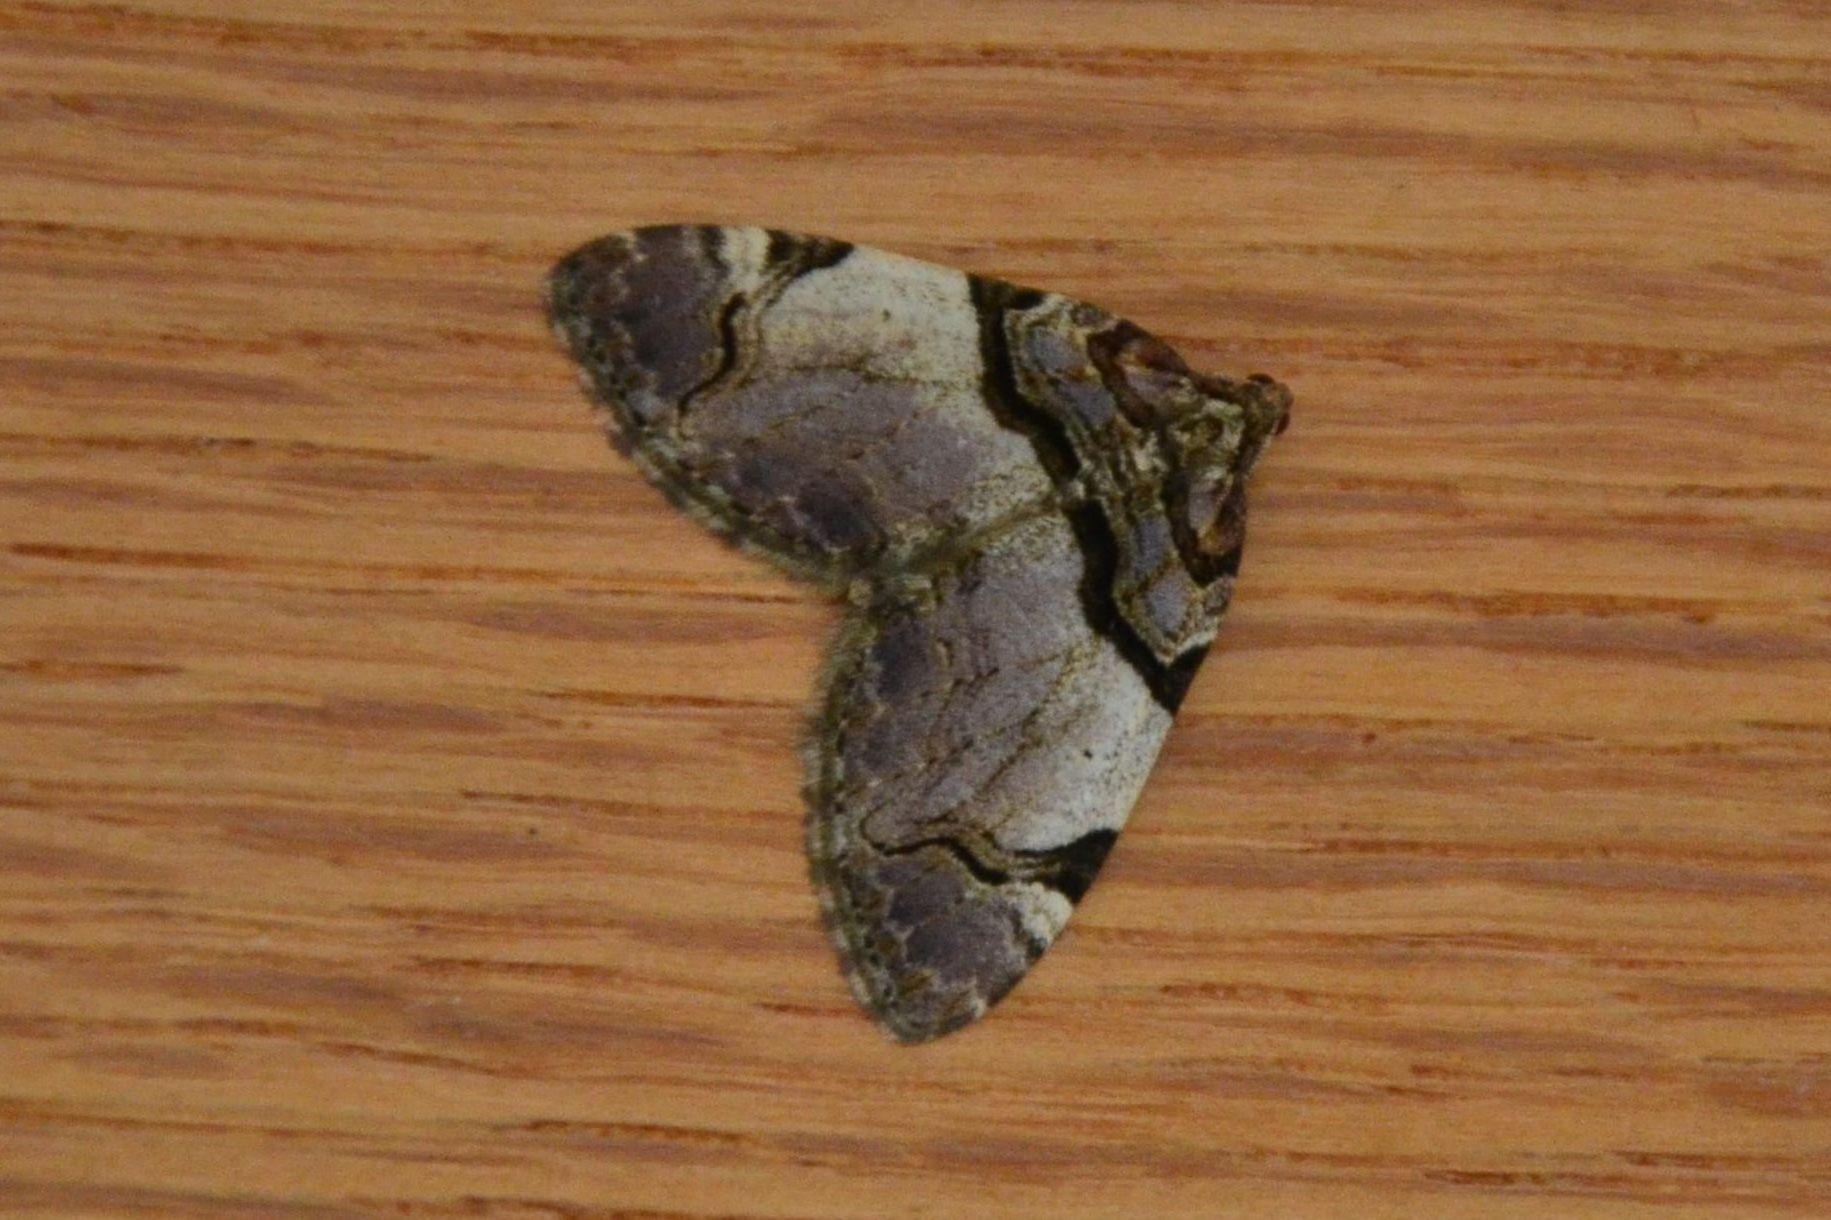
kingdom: Animalia
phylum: Arthropoda
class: Insecta
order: Lepidoptera
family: Geometridae
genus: Anticlea
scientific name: Anticlea derivata
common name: Streamer
